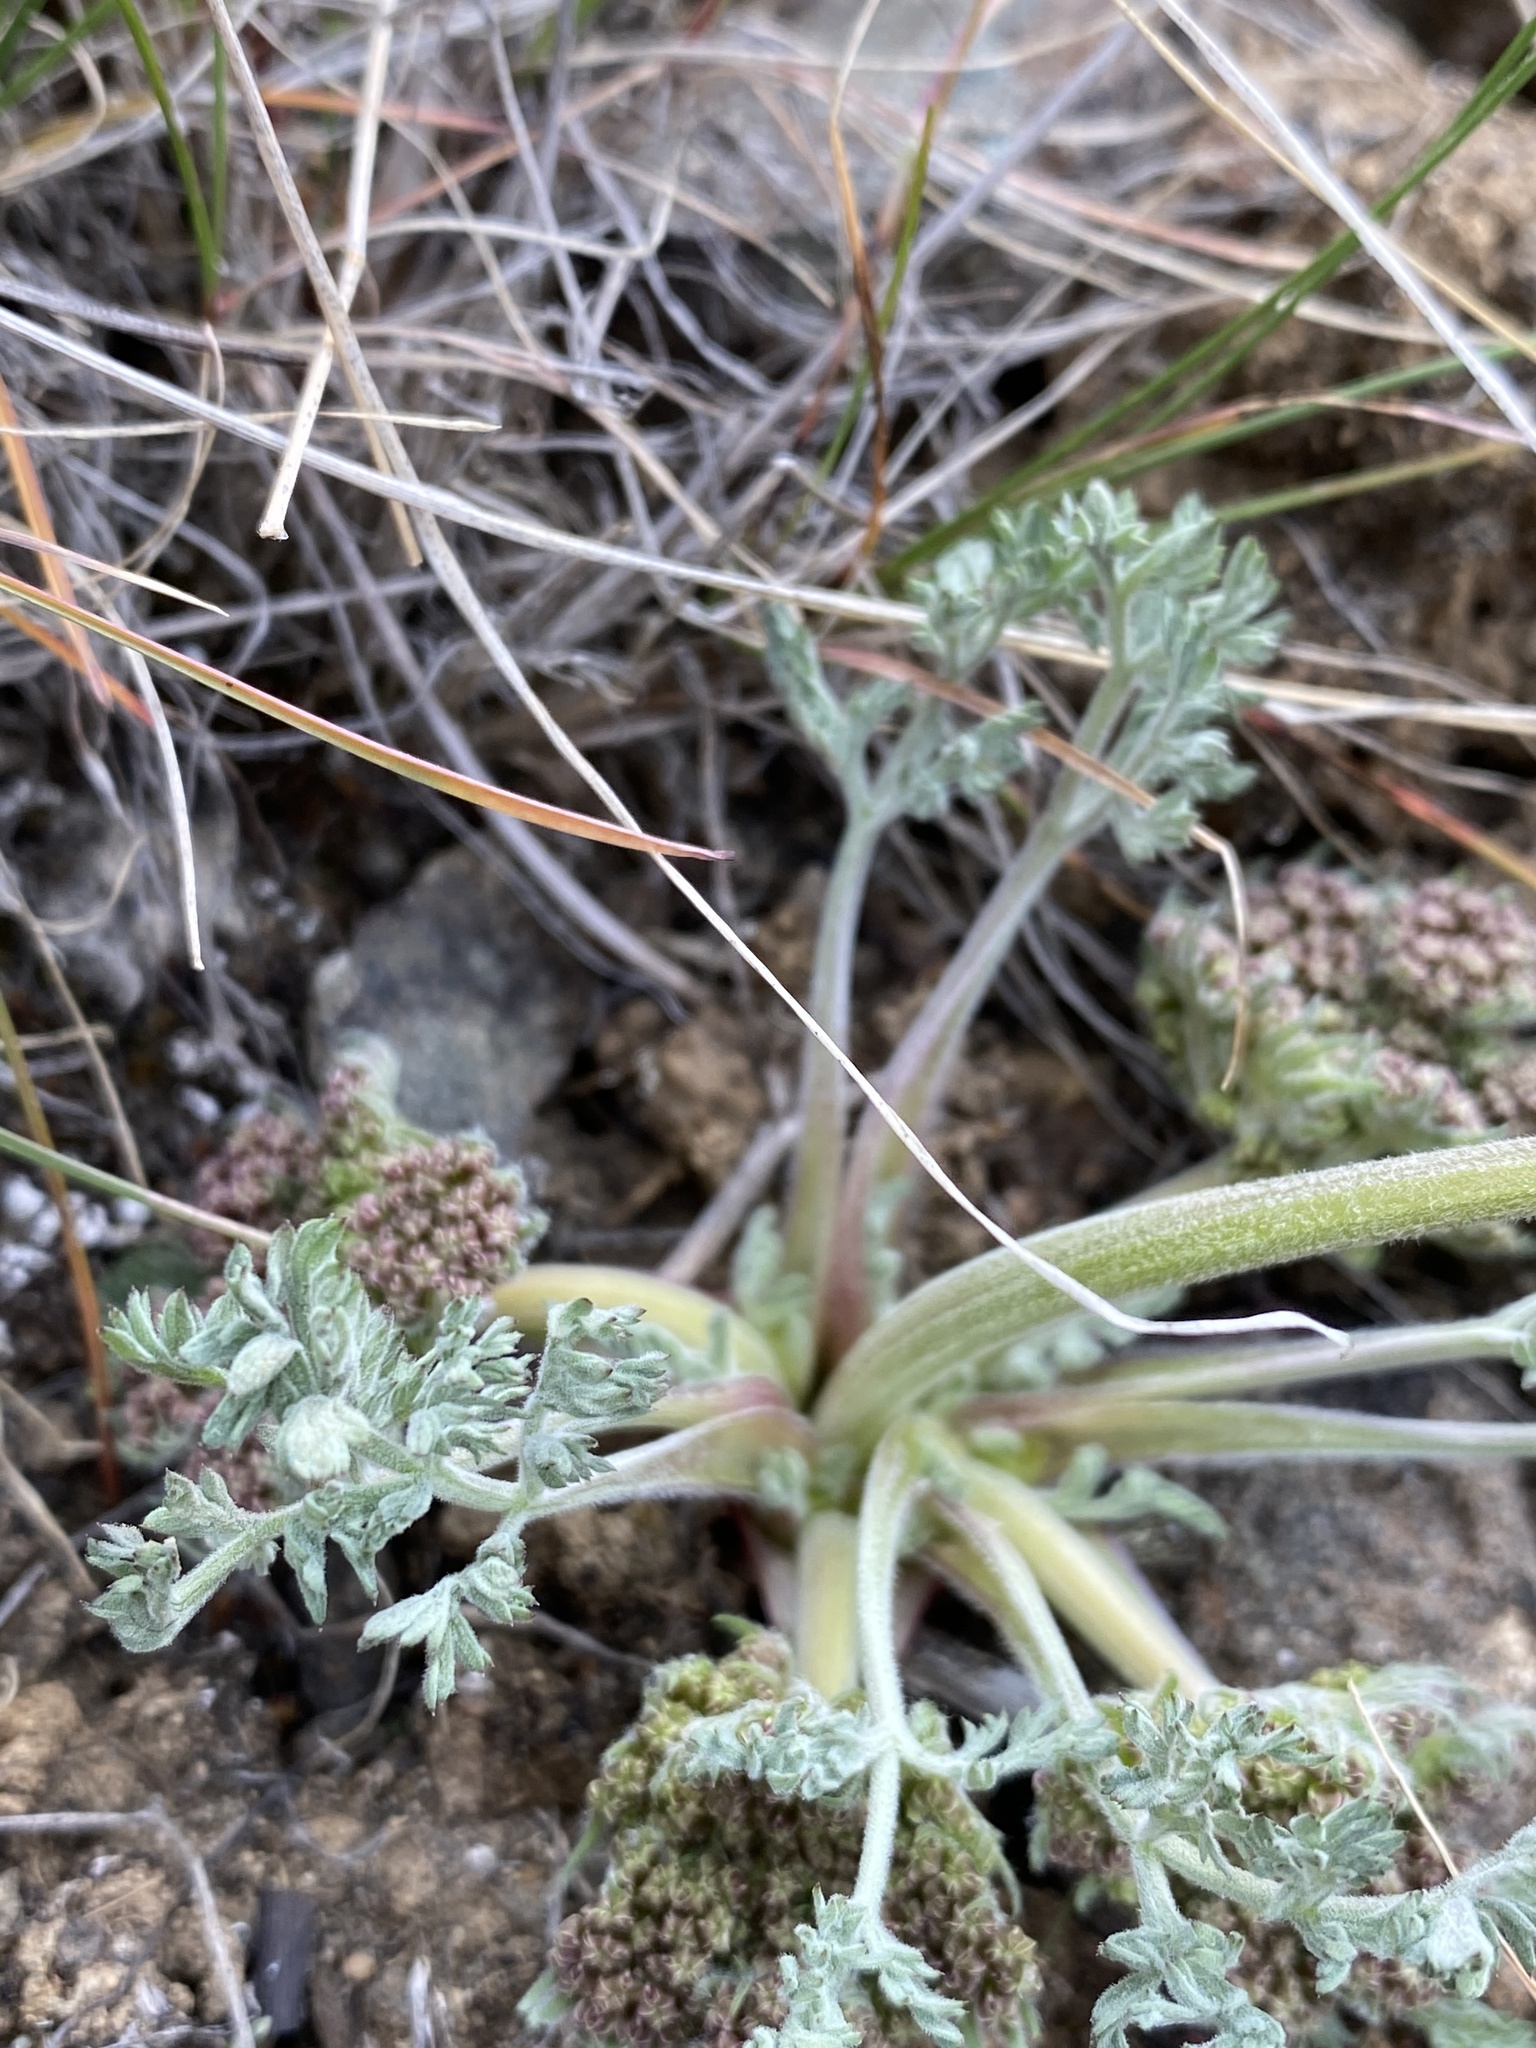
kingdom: Plantae
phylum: Tracheophyta
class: Magnoliopsida
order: Apiales
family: Apiaceae
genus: Lomatium
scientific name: Lomatium macrocarpum
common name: Big-seed biscuitroot
